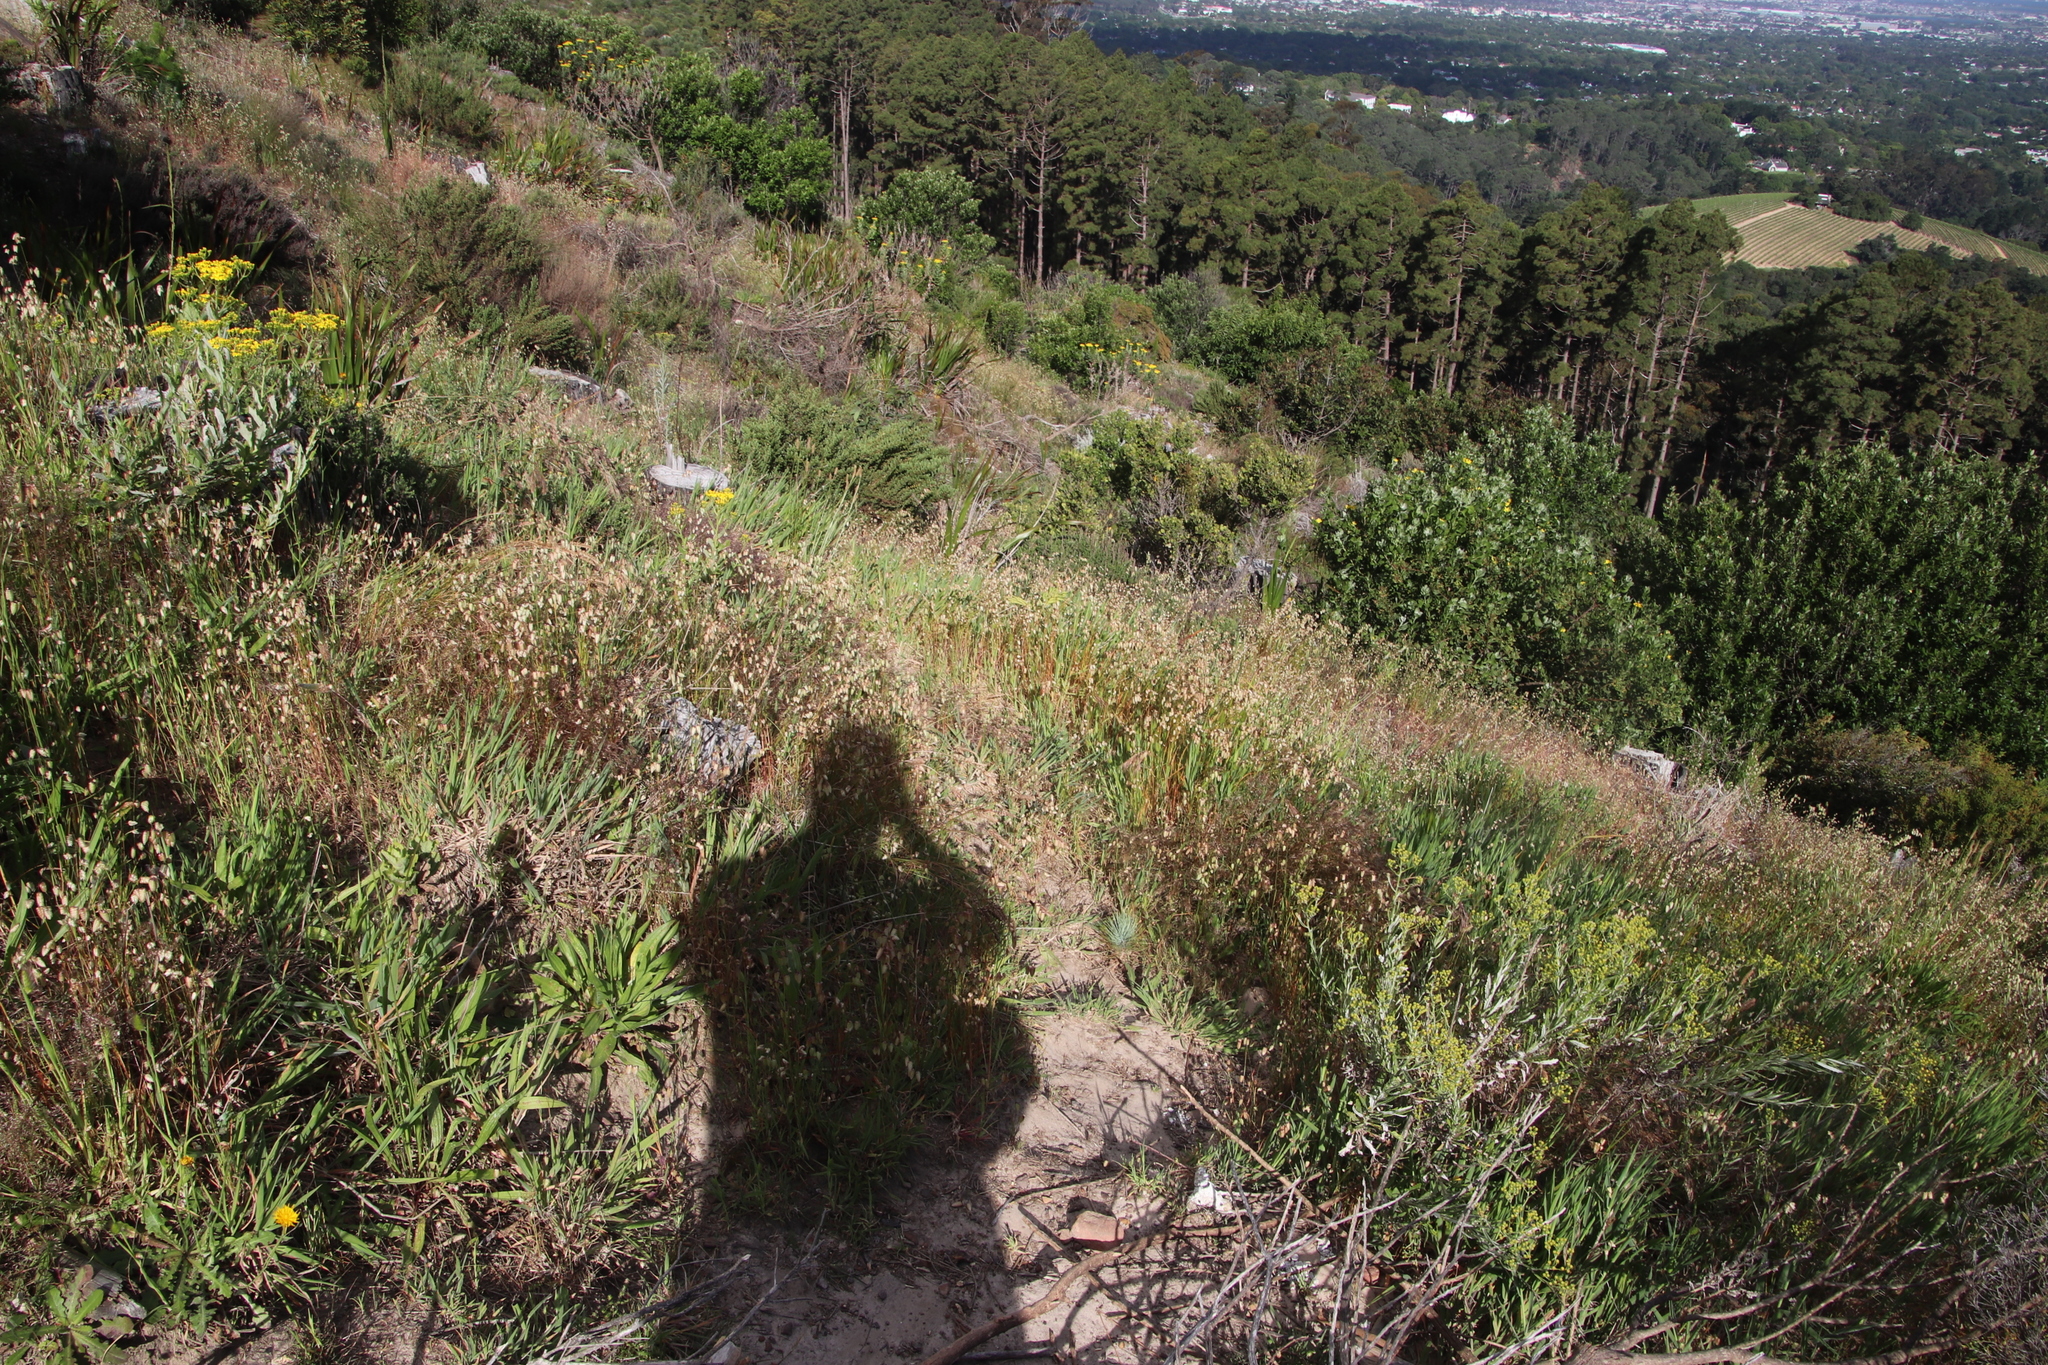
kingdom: Plantae
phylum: Tracheophyta
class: Liliopsida
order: Poales
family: Poaceae
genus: Briza
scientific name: Briza maxima
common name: Big quakinggrass
